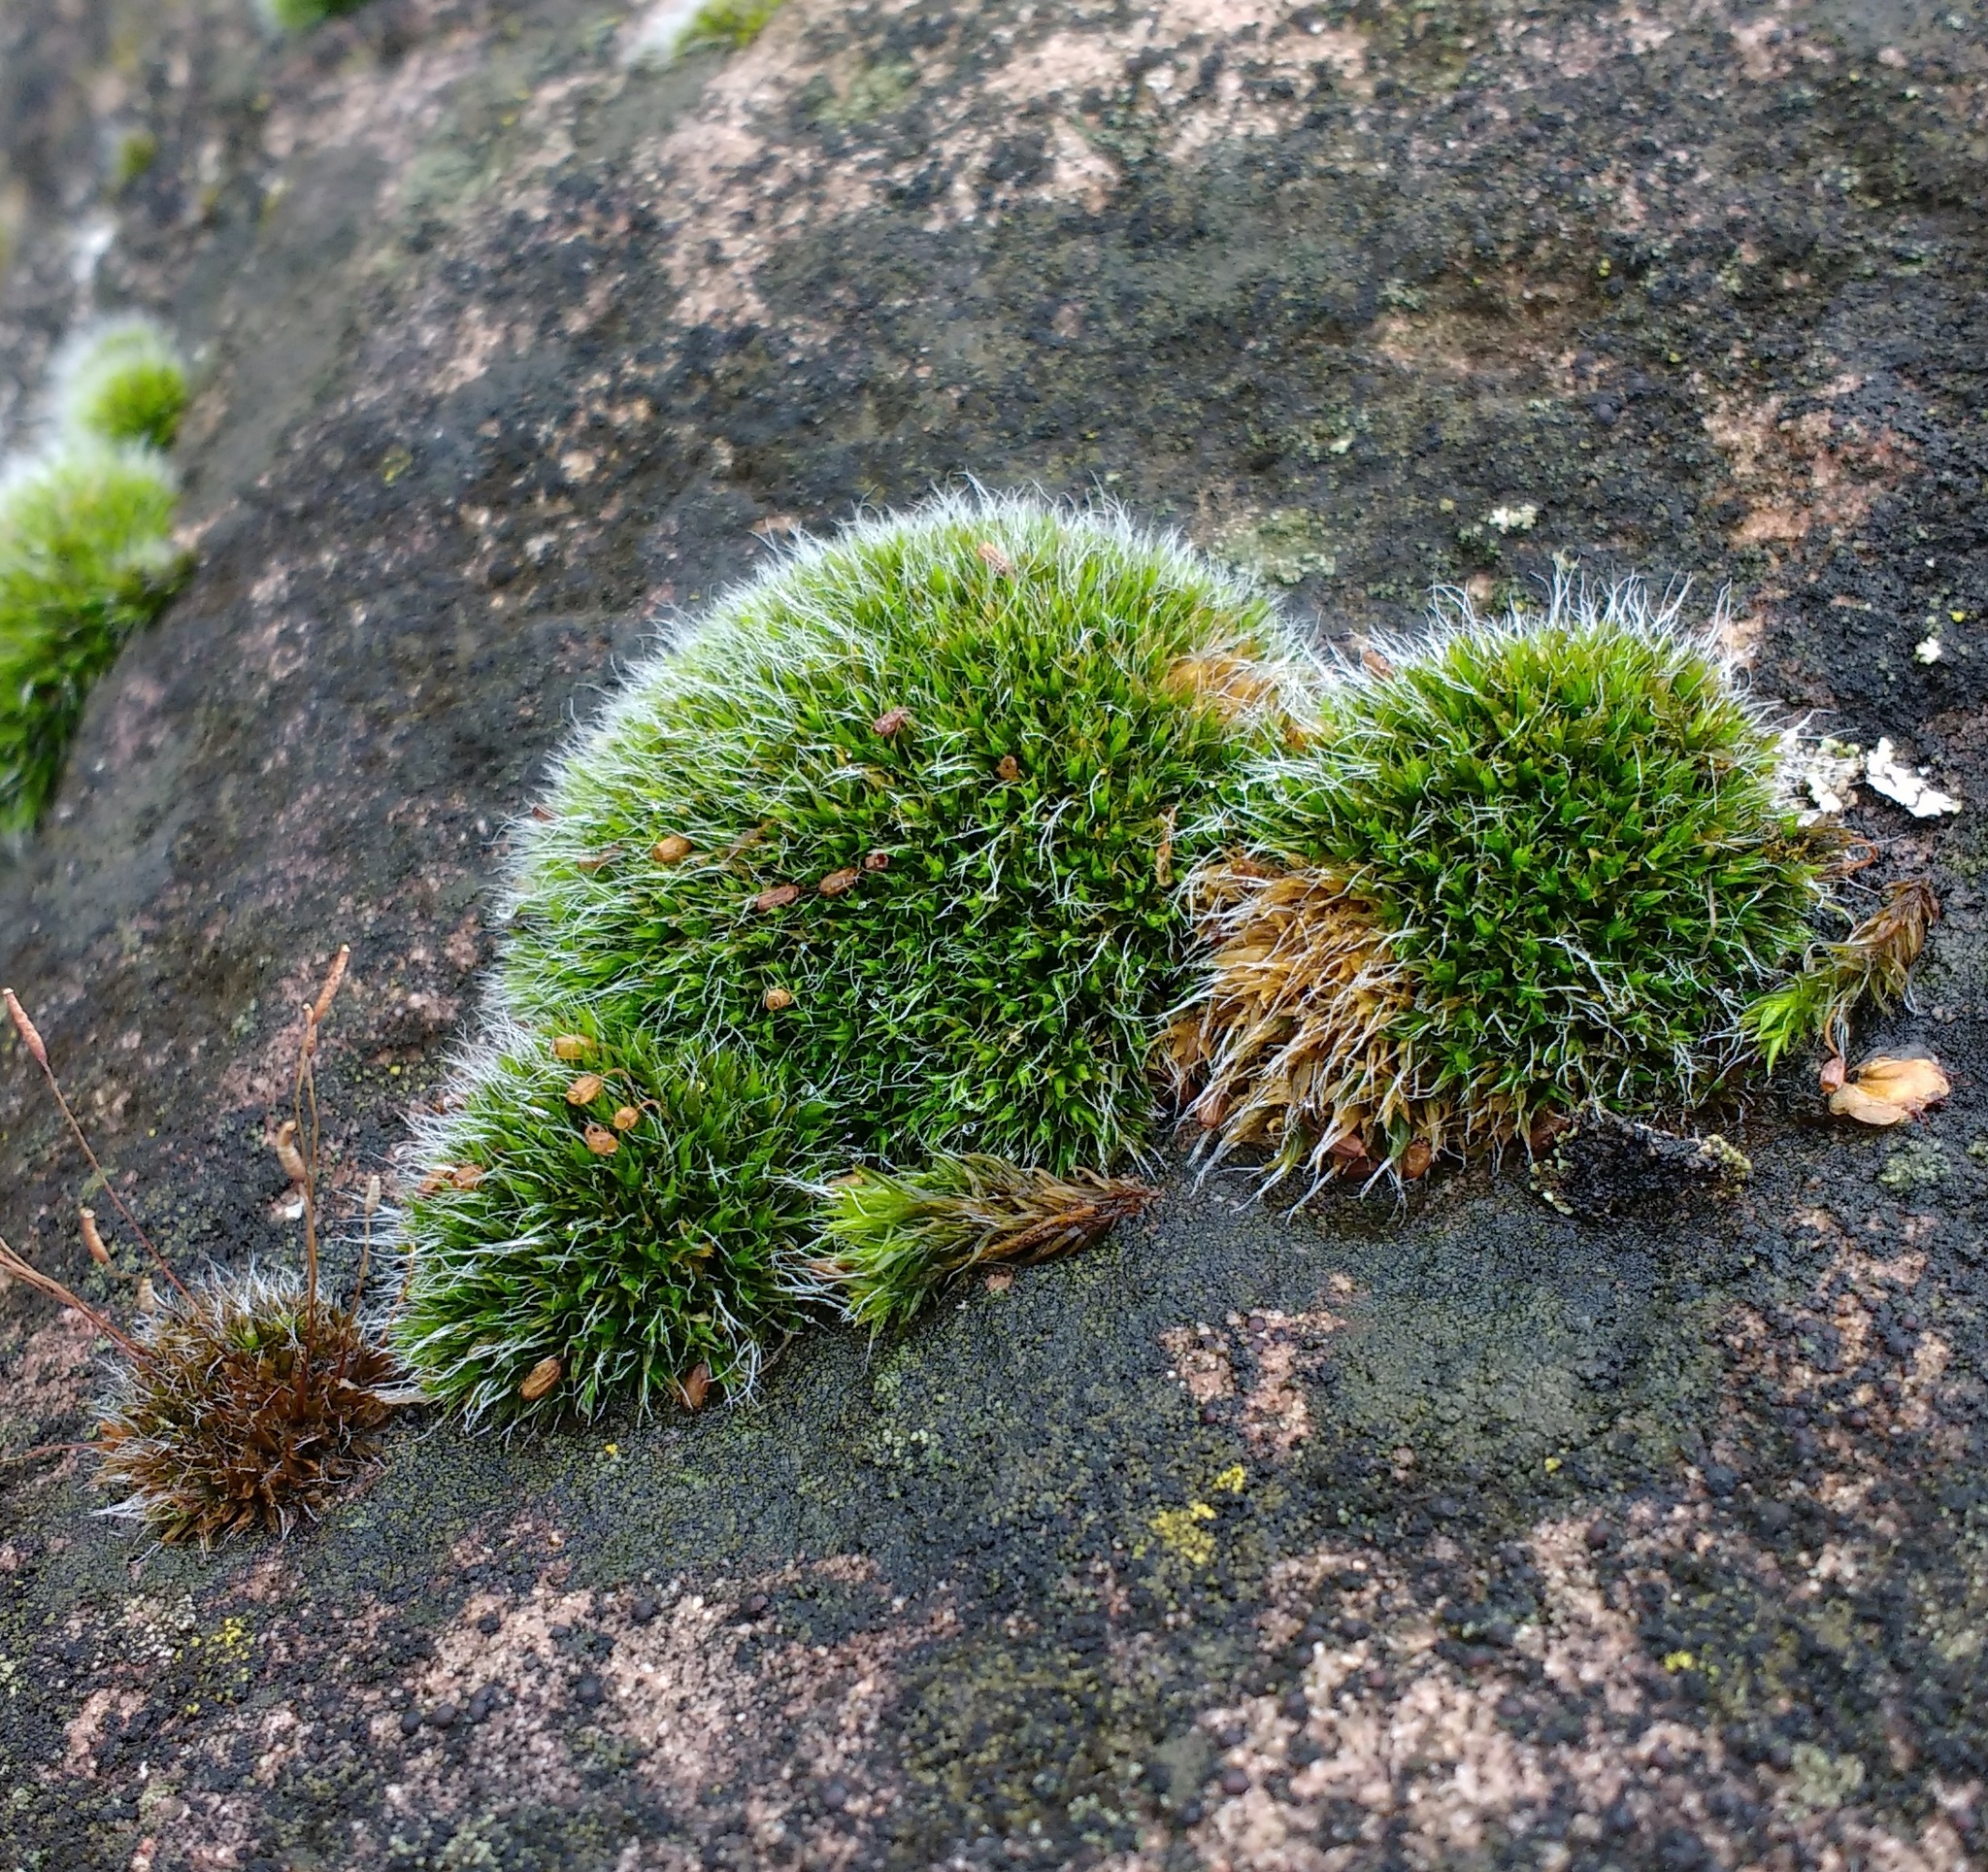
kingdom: Plantae
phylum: Bryophyta
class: Bryopsida
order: Grimmiales
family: Grimmiaceae
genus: Grimmia
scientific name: Grimmia pulvinata
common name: Grey-cushioned grimmia
